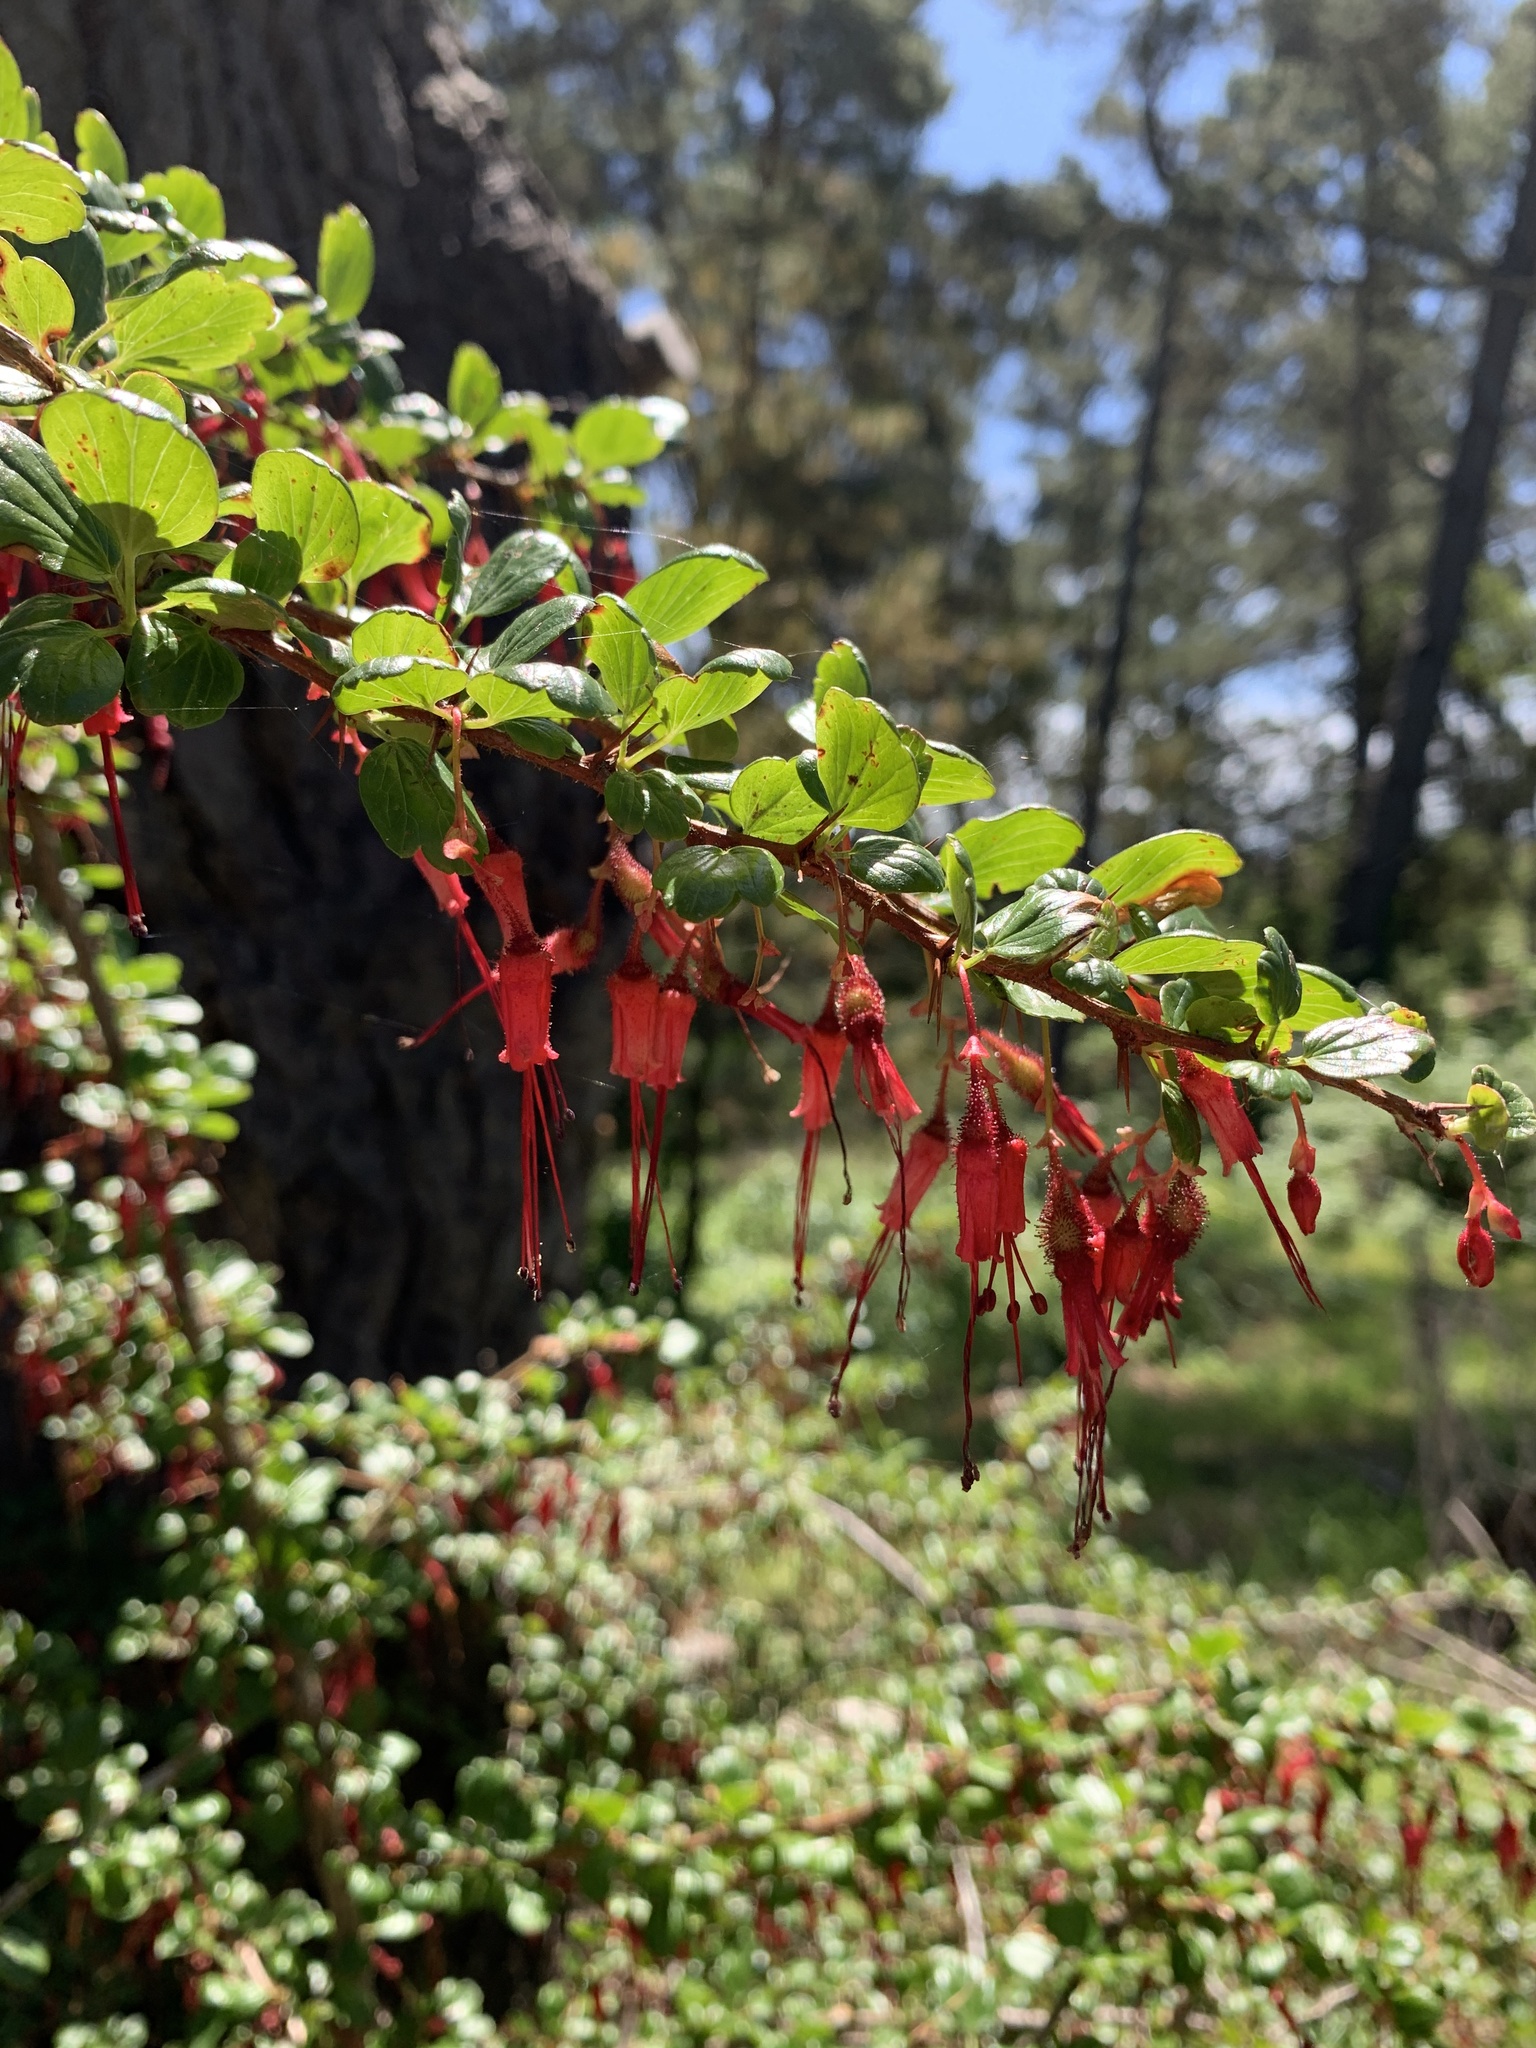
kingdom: Plantae
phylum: Tracheophyta
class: Magnoliopsida
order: Saxifragales
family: Grossulariaceae
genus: Ribes
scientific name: Ribes speciosum
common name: Fuchsia-flower gooseberry
